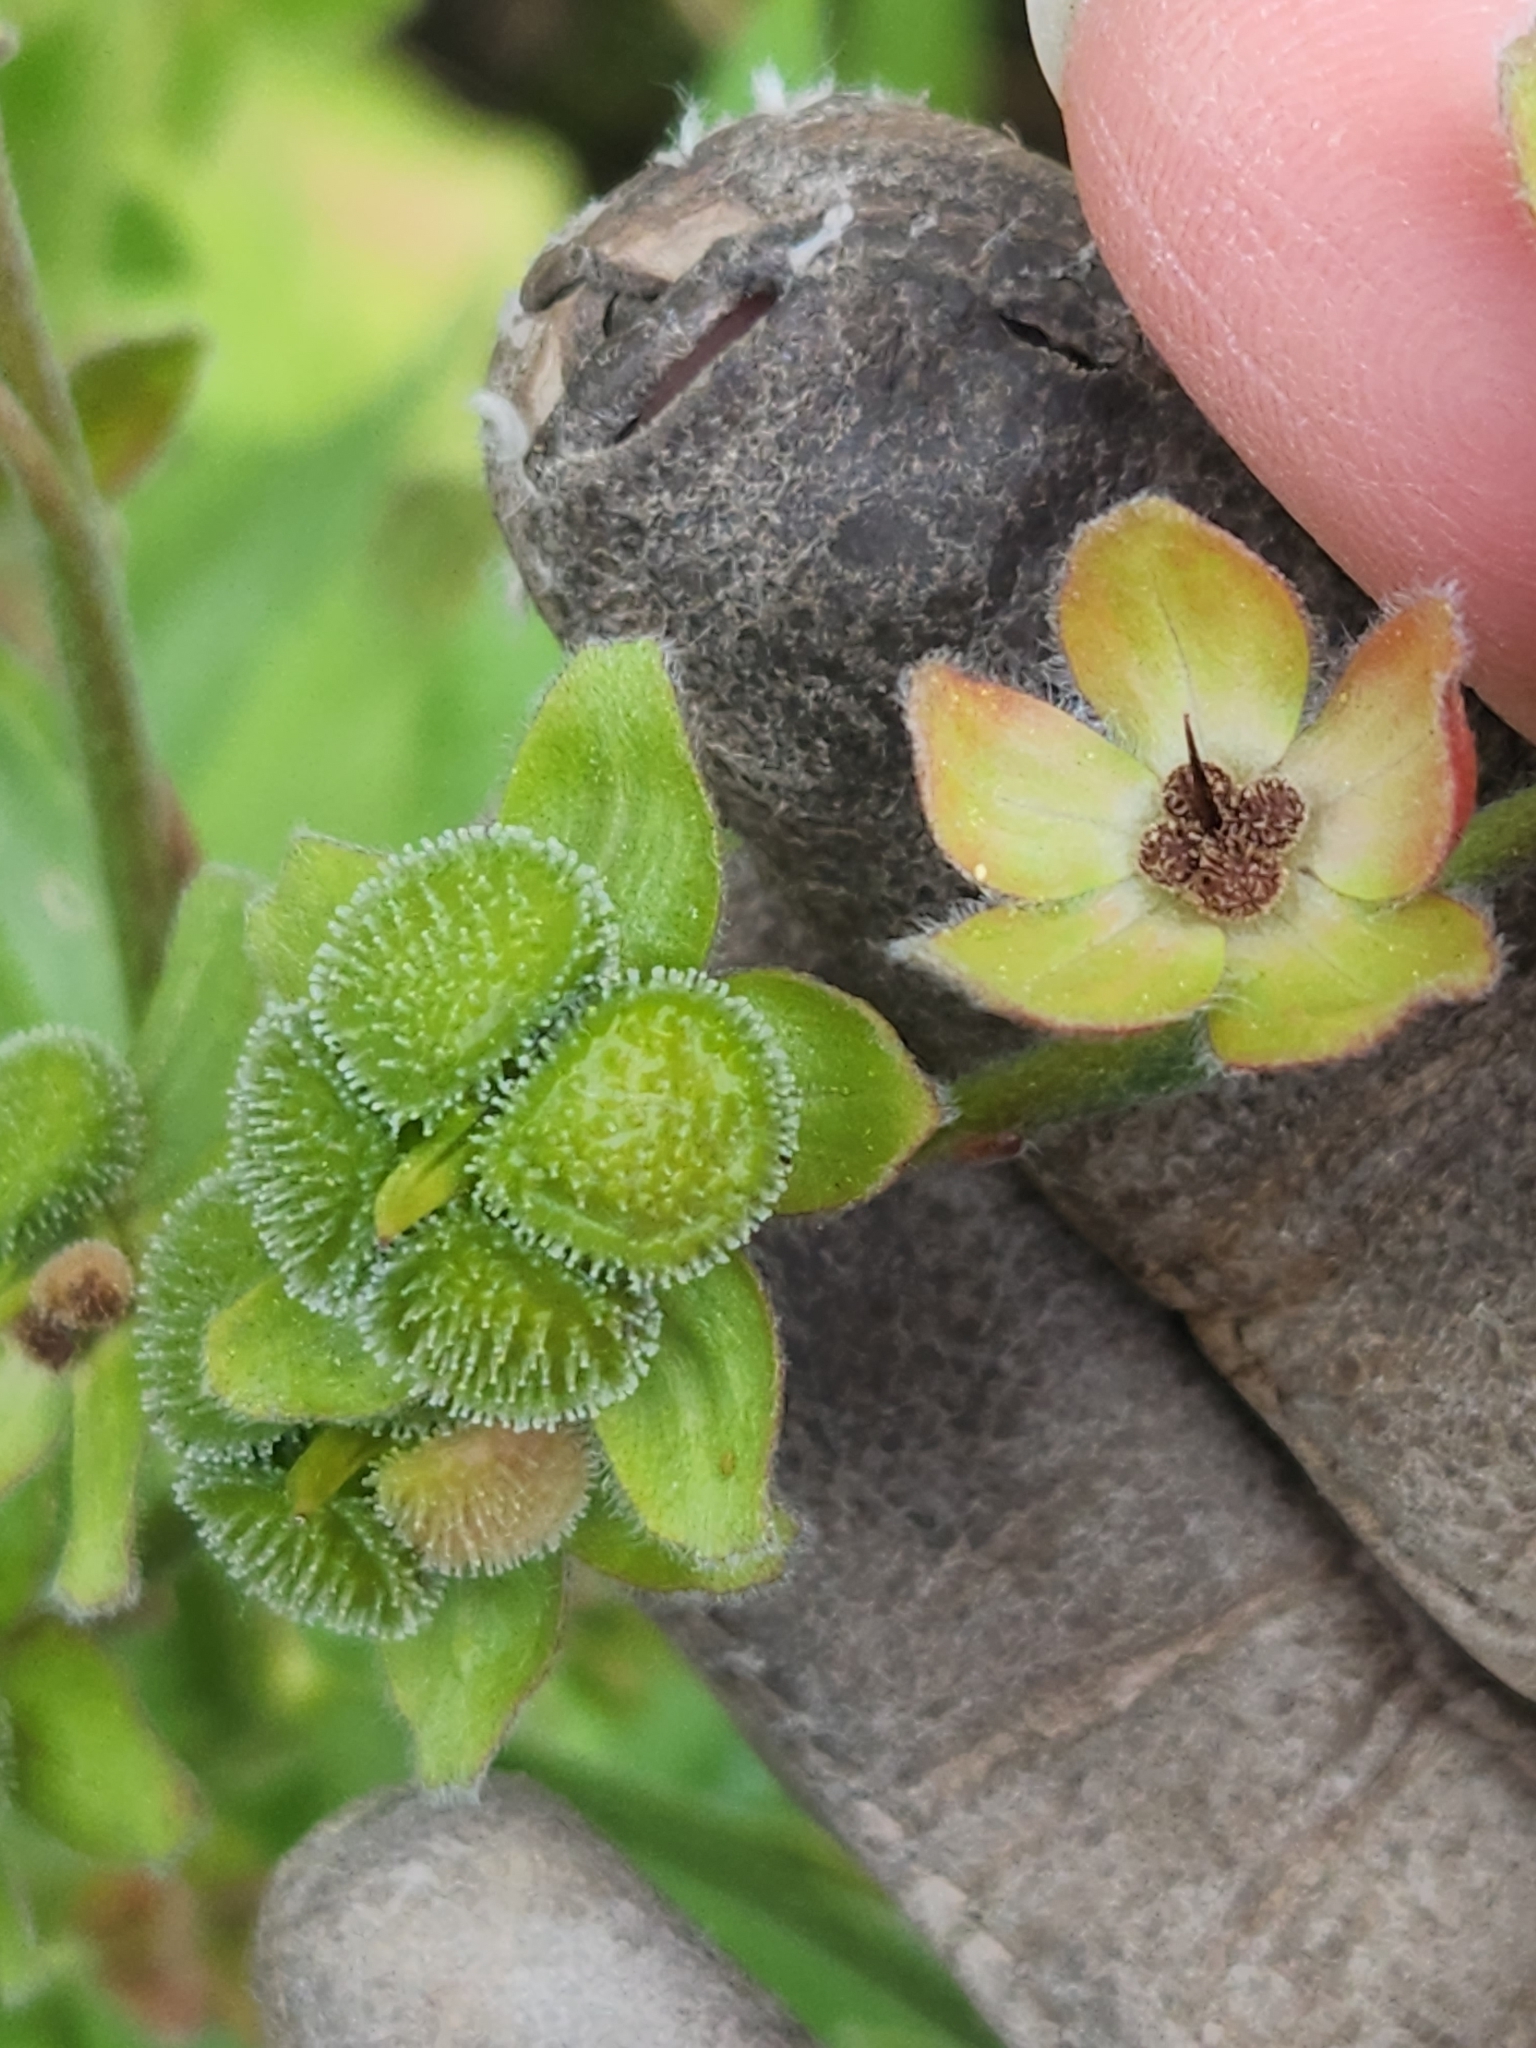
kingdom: Plantae
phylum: Tracheophyta
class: Magnoliopsida
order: Boraginales
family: Boraginaceae
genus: Cynoglossum
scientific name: Cynoglossum officinale
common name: Hound's-tongue
